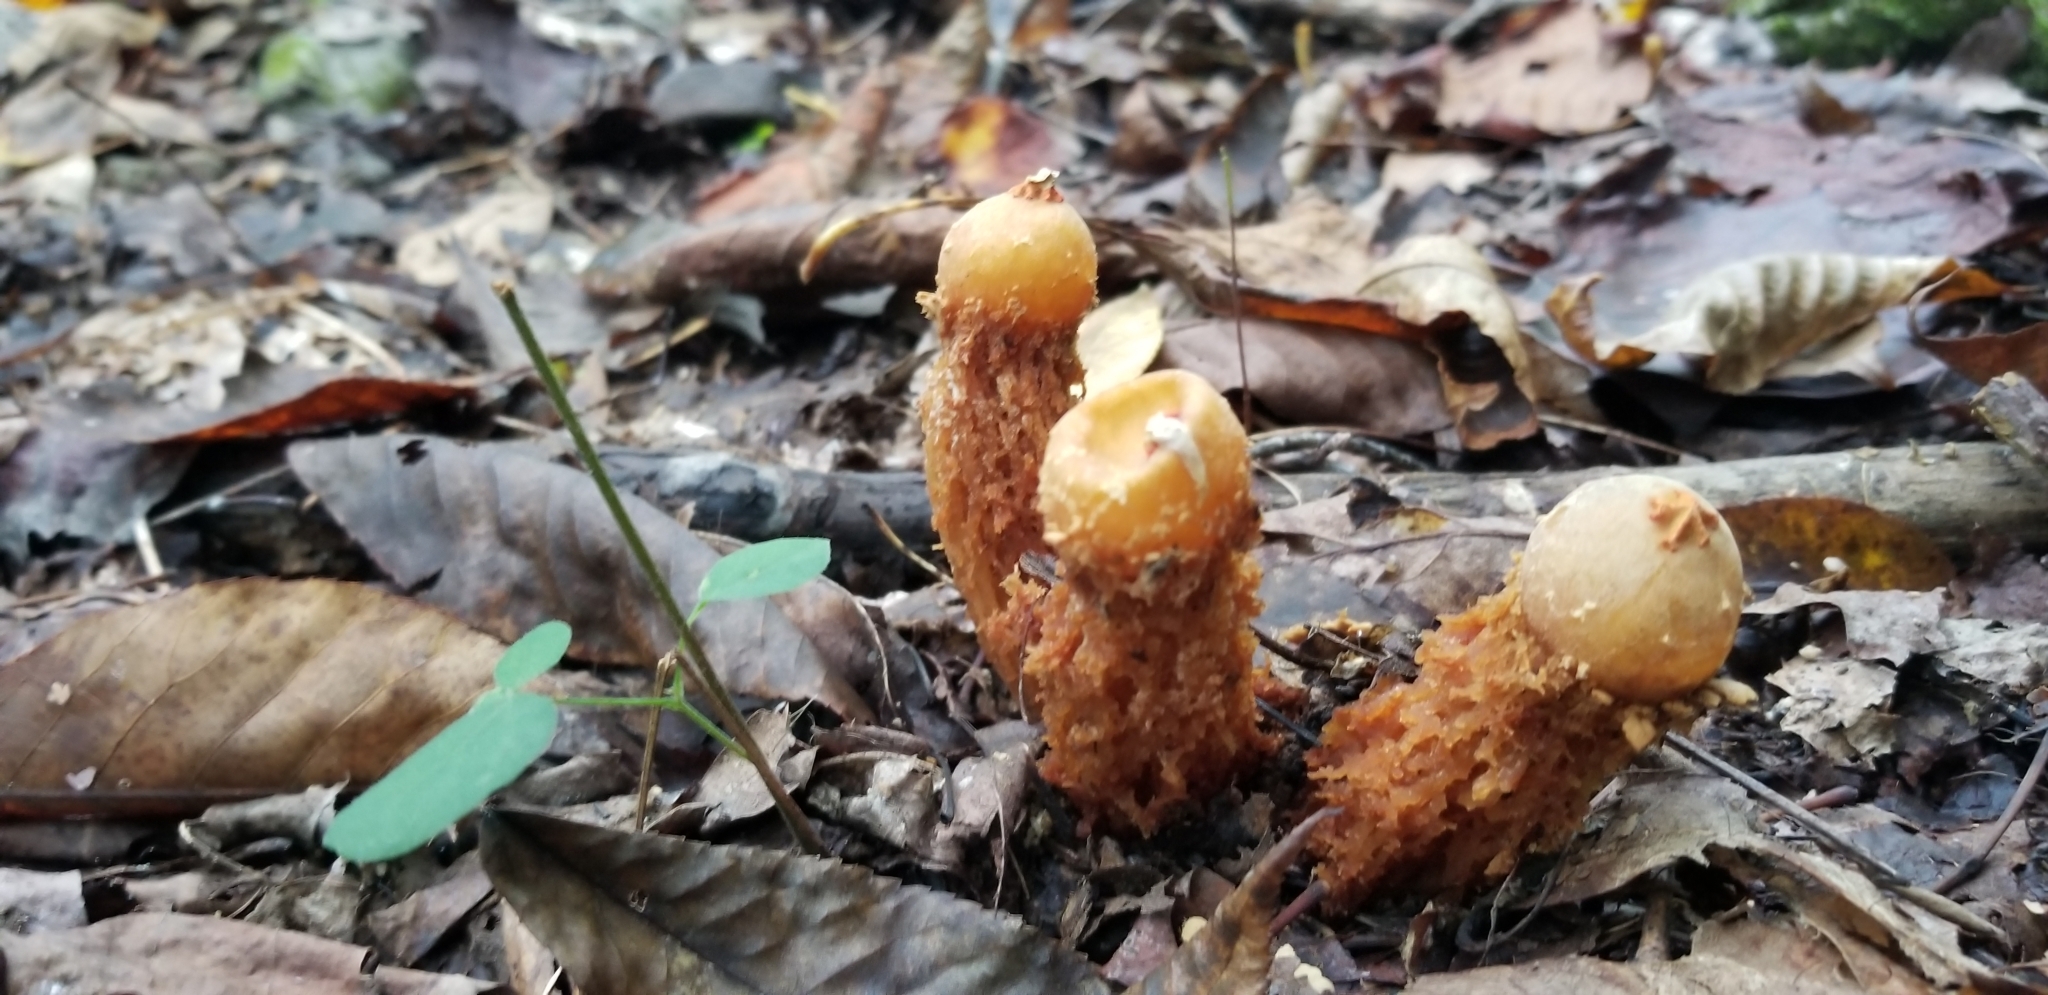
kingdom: Fungi
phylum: Basidiomycota
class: Agaricomycetes
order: Boletales
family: Calostomataceae
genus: Calostoma
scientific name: Calostoma ravenelii
